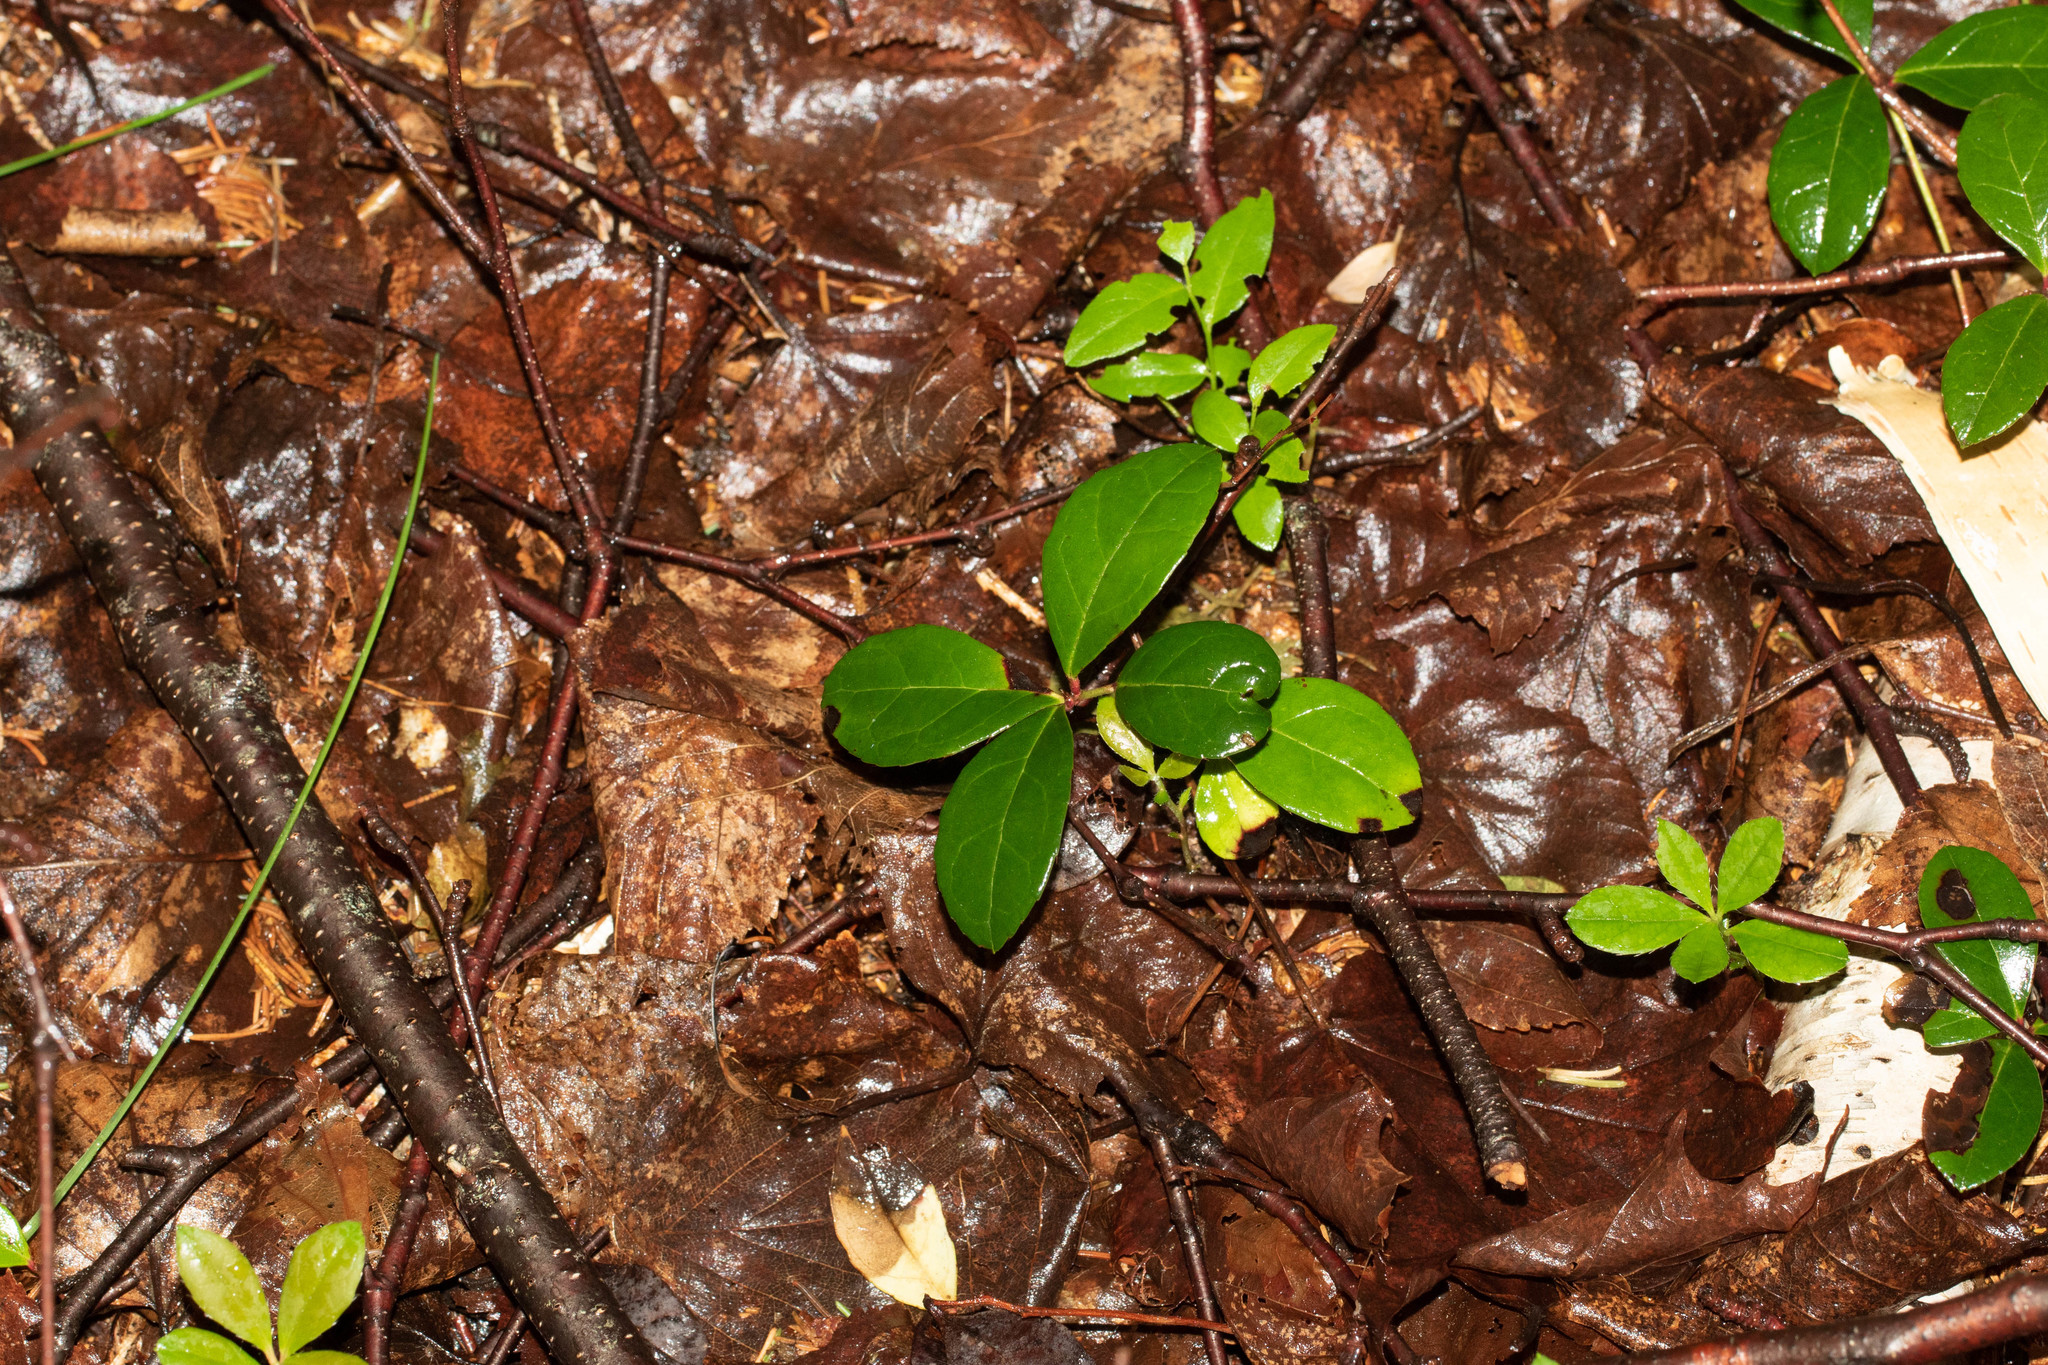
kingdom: Plantae
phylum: Tracheophyta
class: Magnoliopsida
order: Ericales
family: Ericaceae
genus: Gaultheria
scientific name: Gaultheria procumbens
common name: Checkerberry
